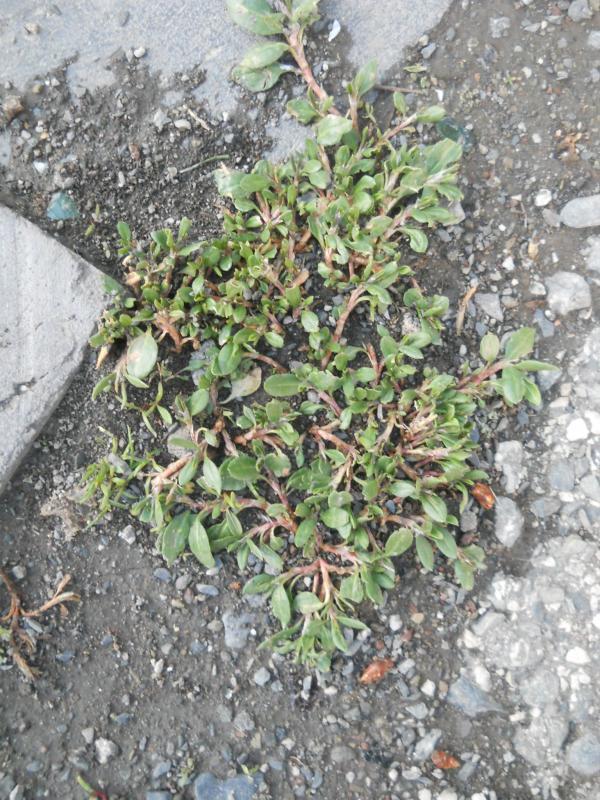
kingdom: Plantae
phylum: Tracheophyta
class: Magnoliopsida
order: Caryophyllales
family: Polygonaceae
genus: Polygonum
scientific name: Polygonum aviculare
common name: Prostrate knotweed
